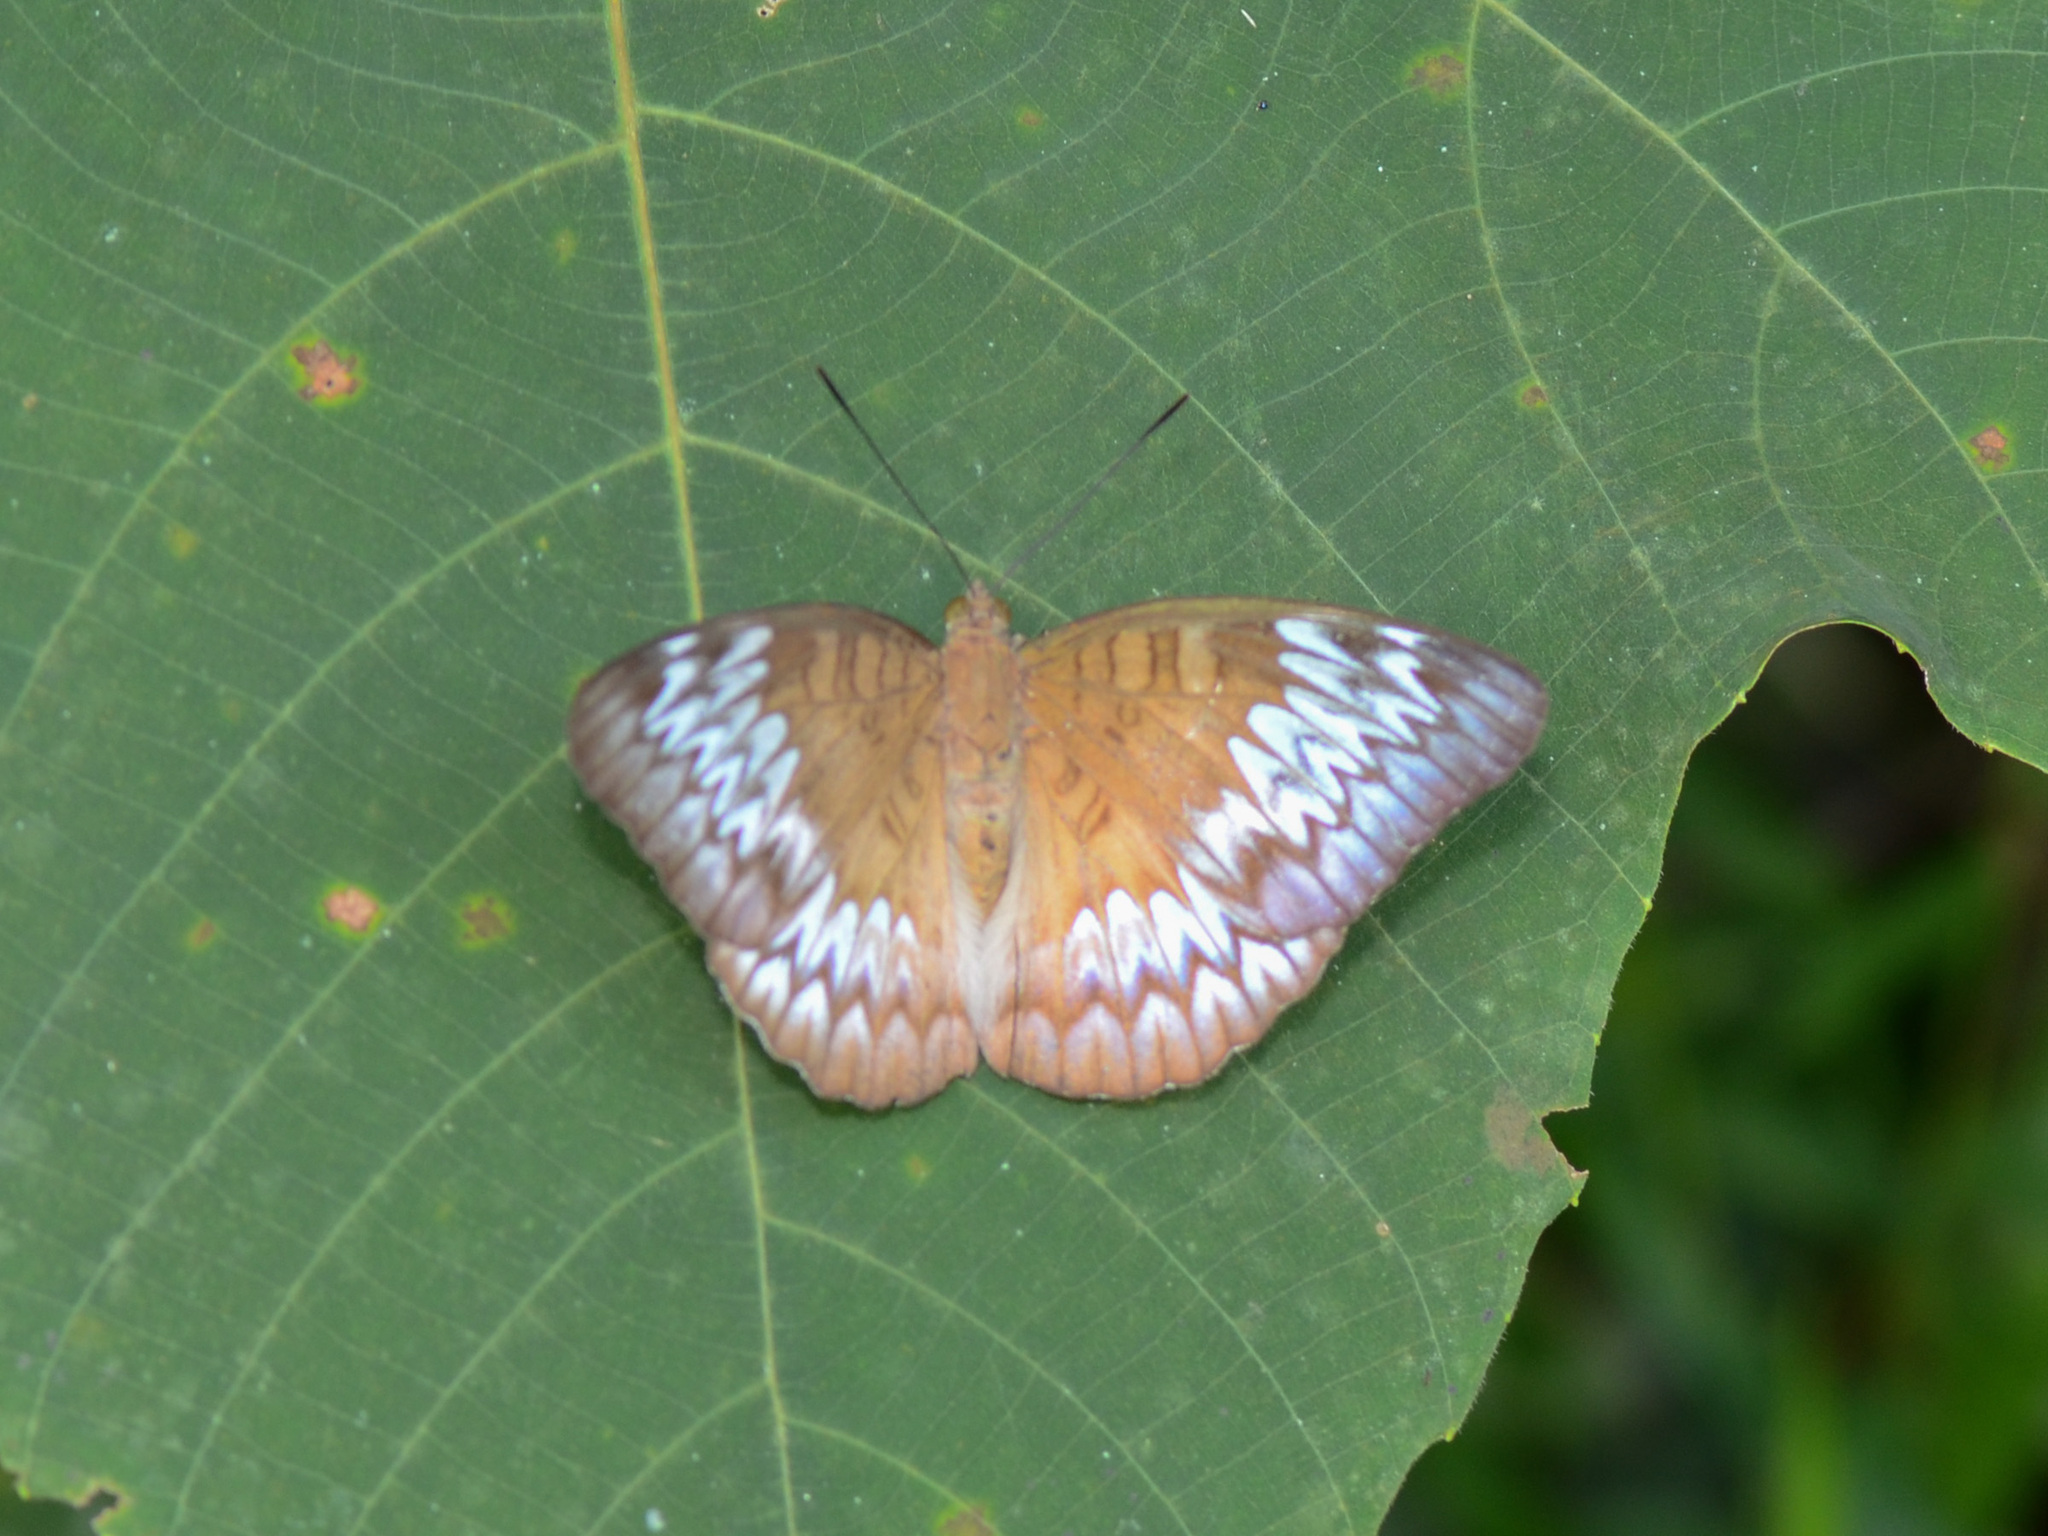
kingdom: Animalia
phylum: Arthropoda
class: Insecta
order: Lepidoptera
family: Nymphalidae
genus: Euthalia
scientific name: Euthalia monina
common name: Powdered baron
